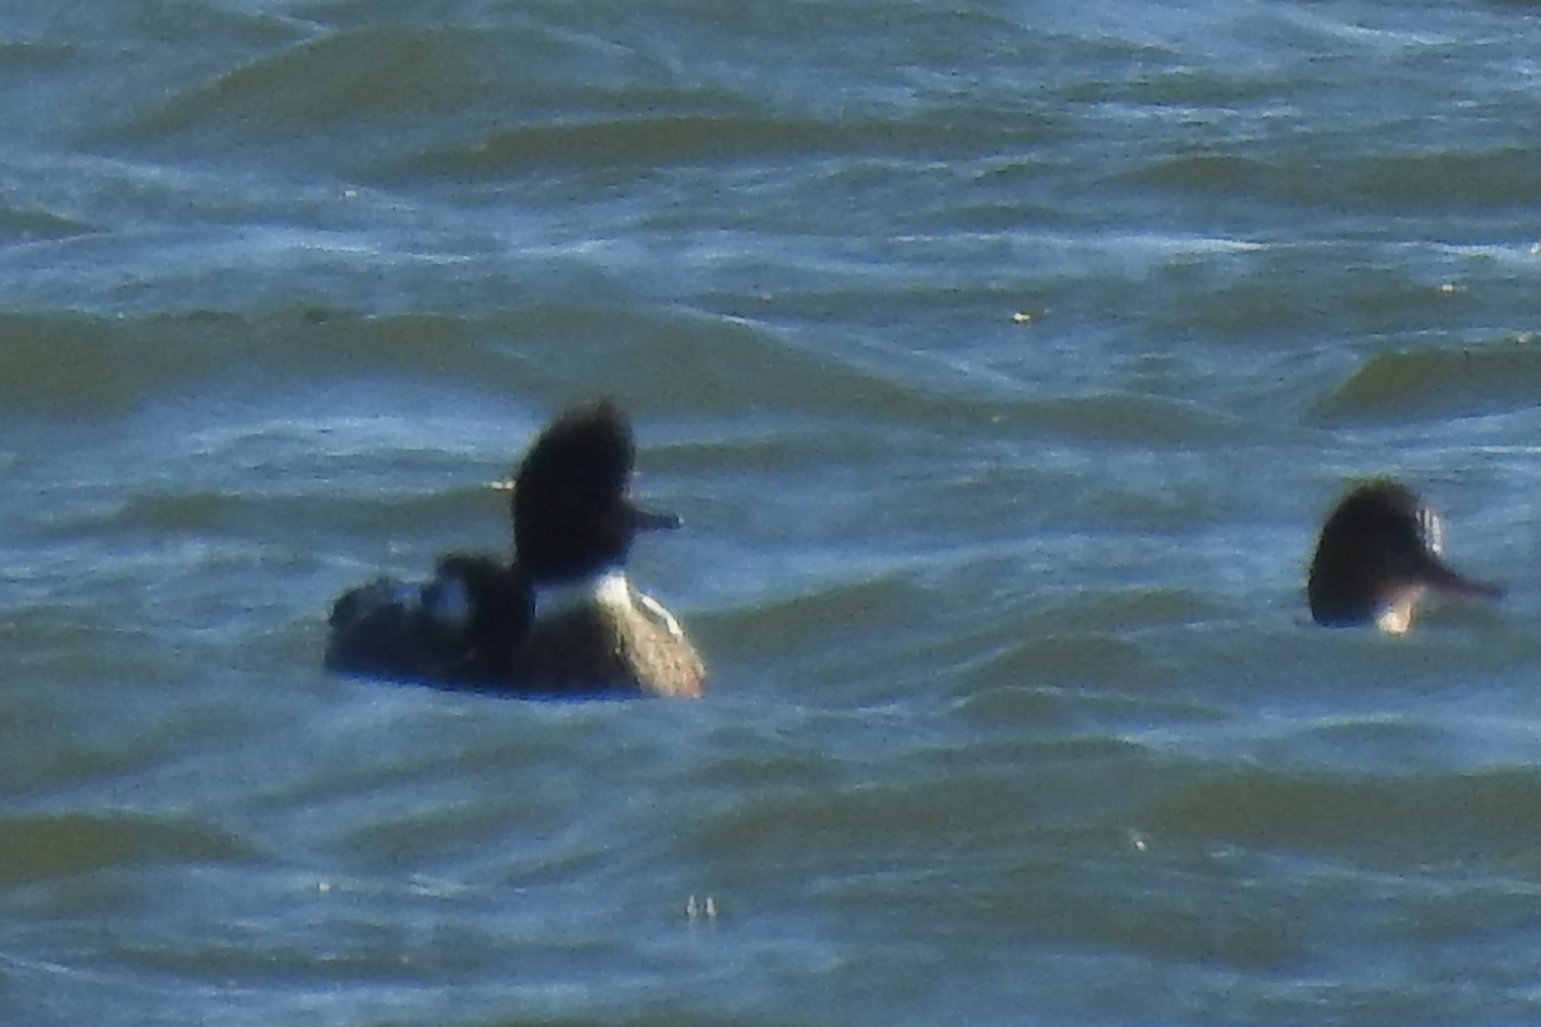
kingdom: Animalia
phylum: Chordata
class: Aves
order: Anseriformes
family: Anatidae
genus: Mergus
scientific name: Mergus serrator
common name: Red-breasted merganser
